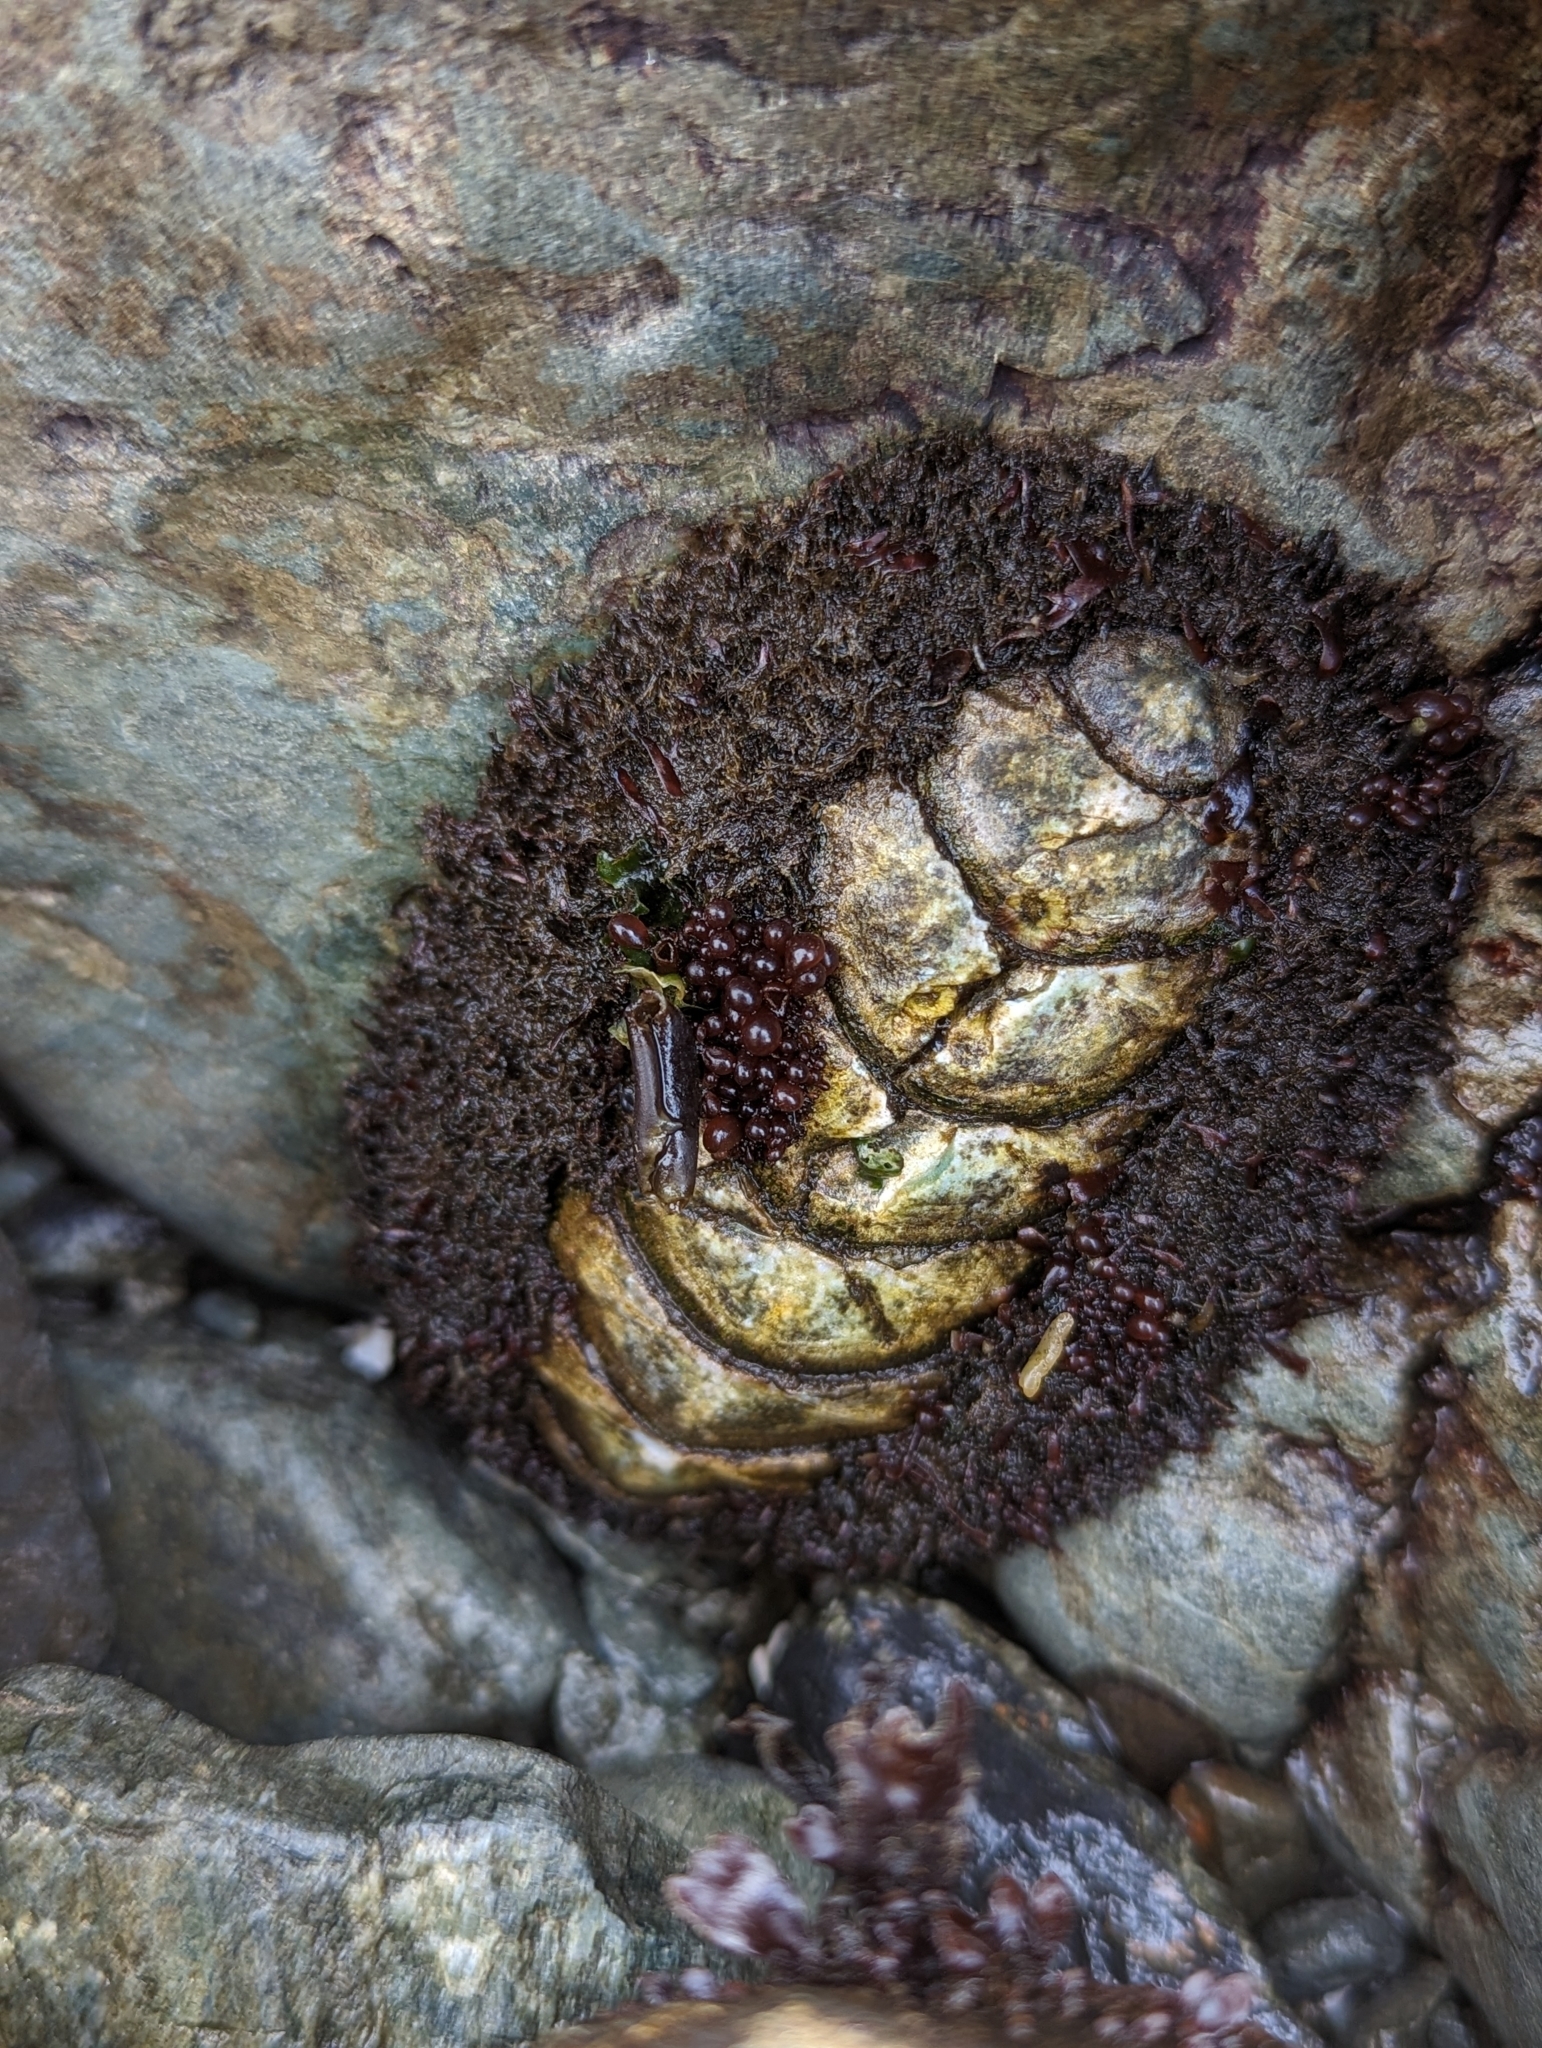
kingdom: Animalia
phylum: Mollusca
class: Polyplacophora
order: Chitonida
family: Mopaliidae
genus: Mopalia
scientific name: Mopalia muscosa
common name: Mossy chiton
